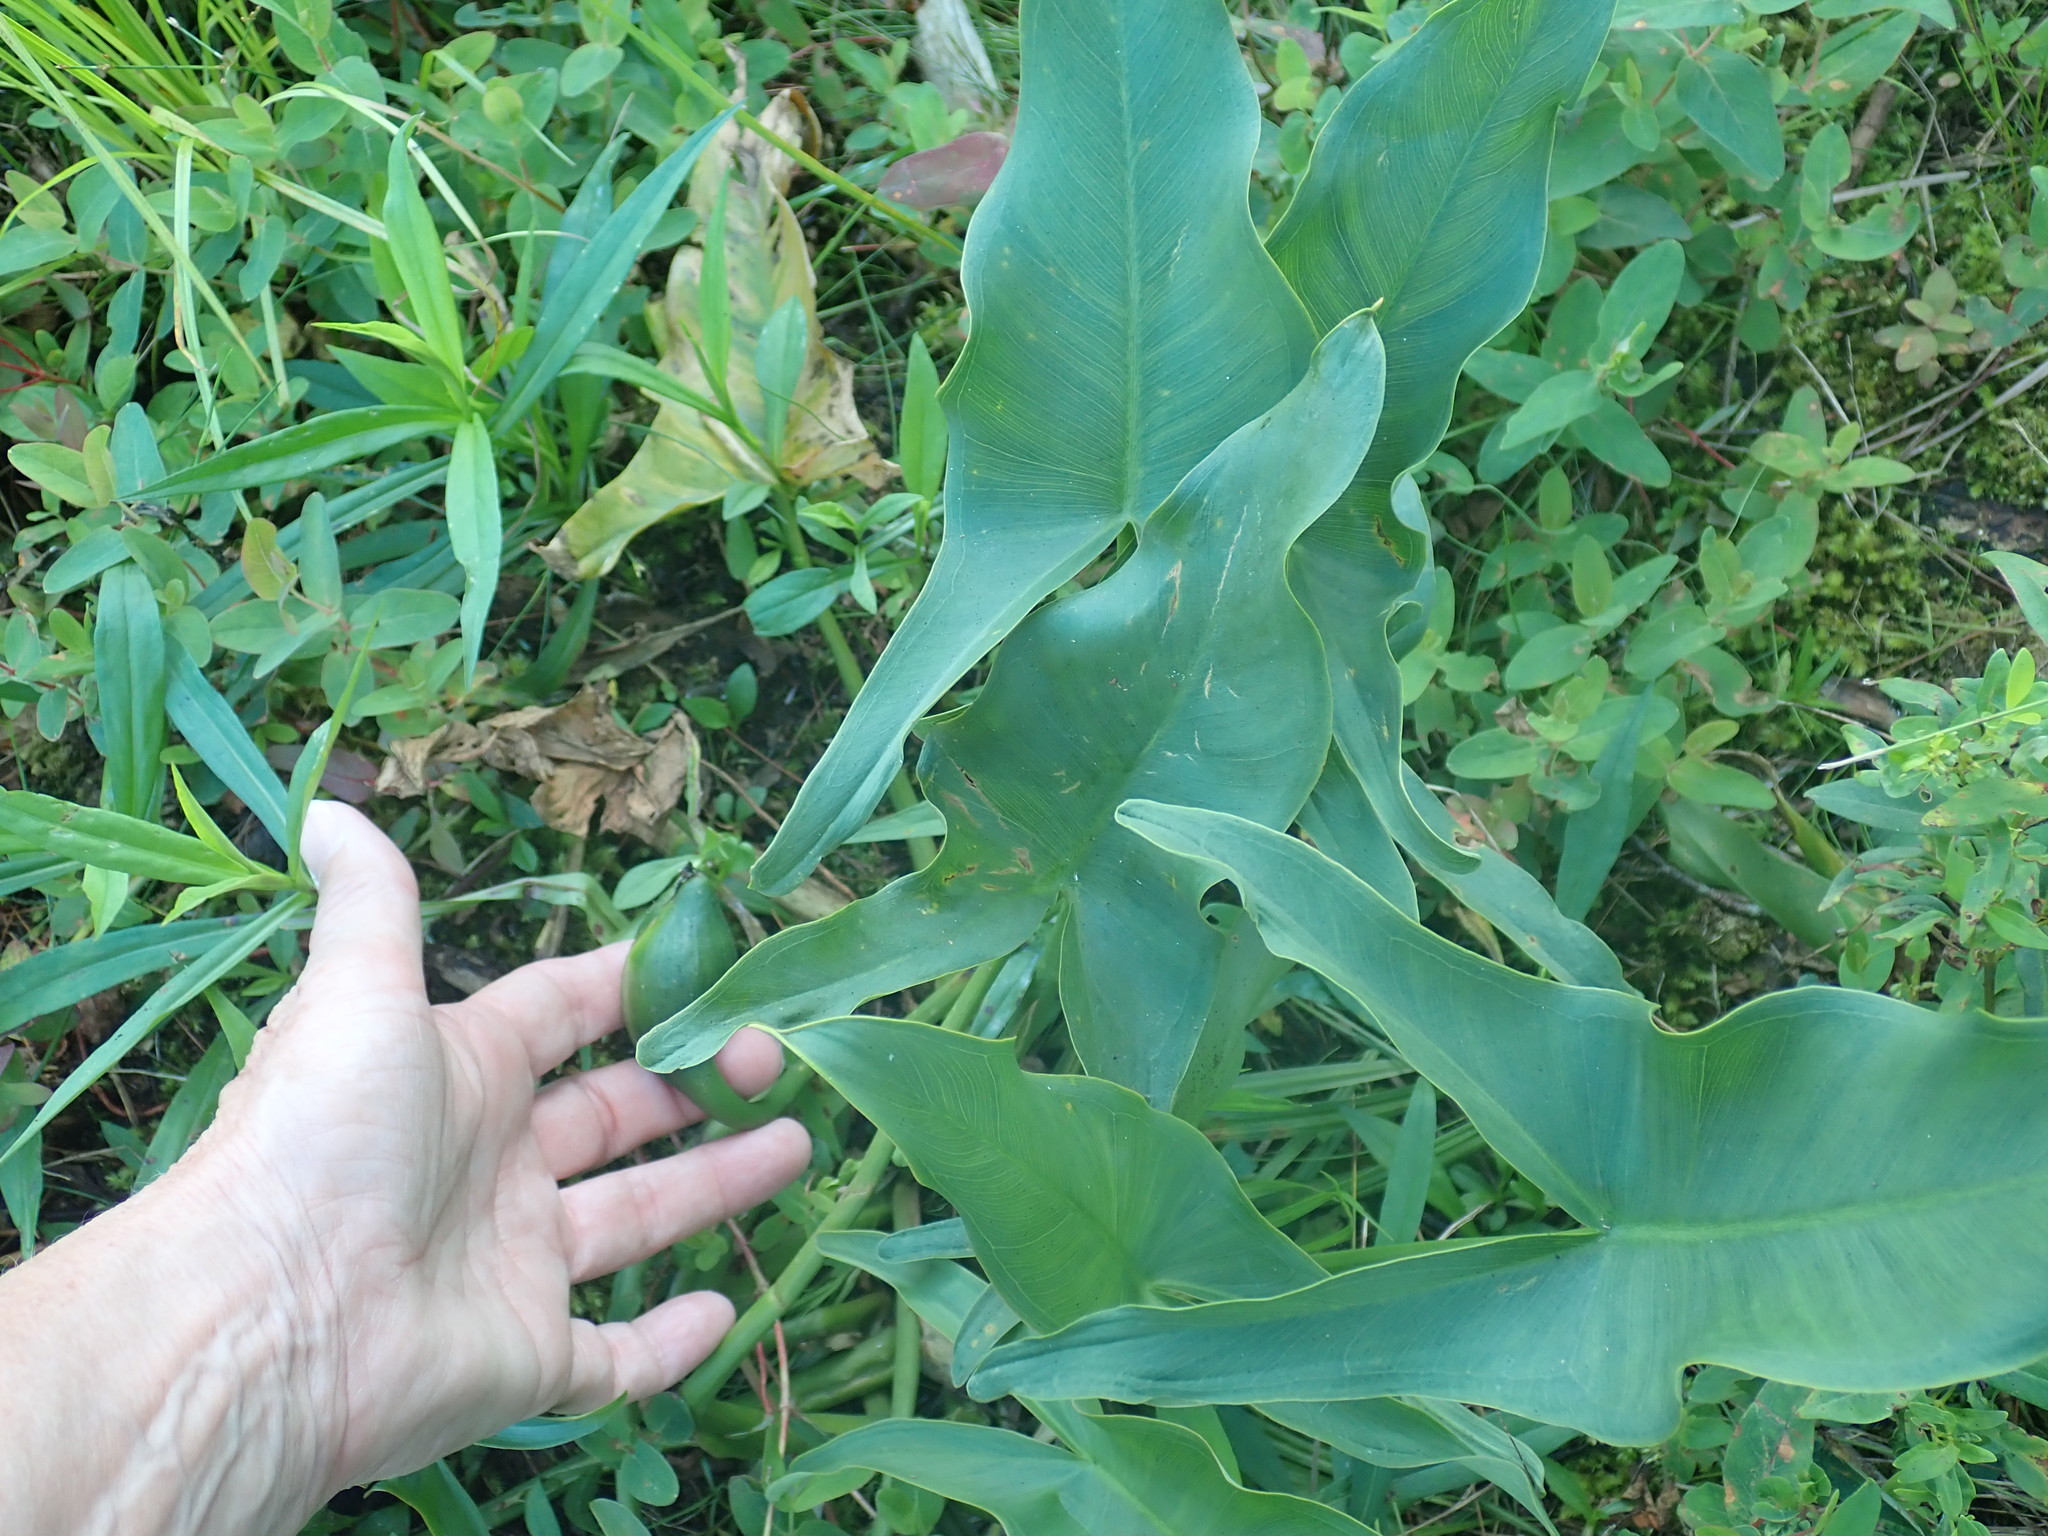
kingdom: Plantae
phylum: Tracheophyta
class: Liliopsida
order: Alismatales
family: Araceae
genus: Peltandra
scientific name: Peltandra virginica
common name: Arrow arum
